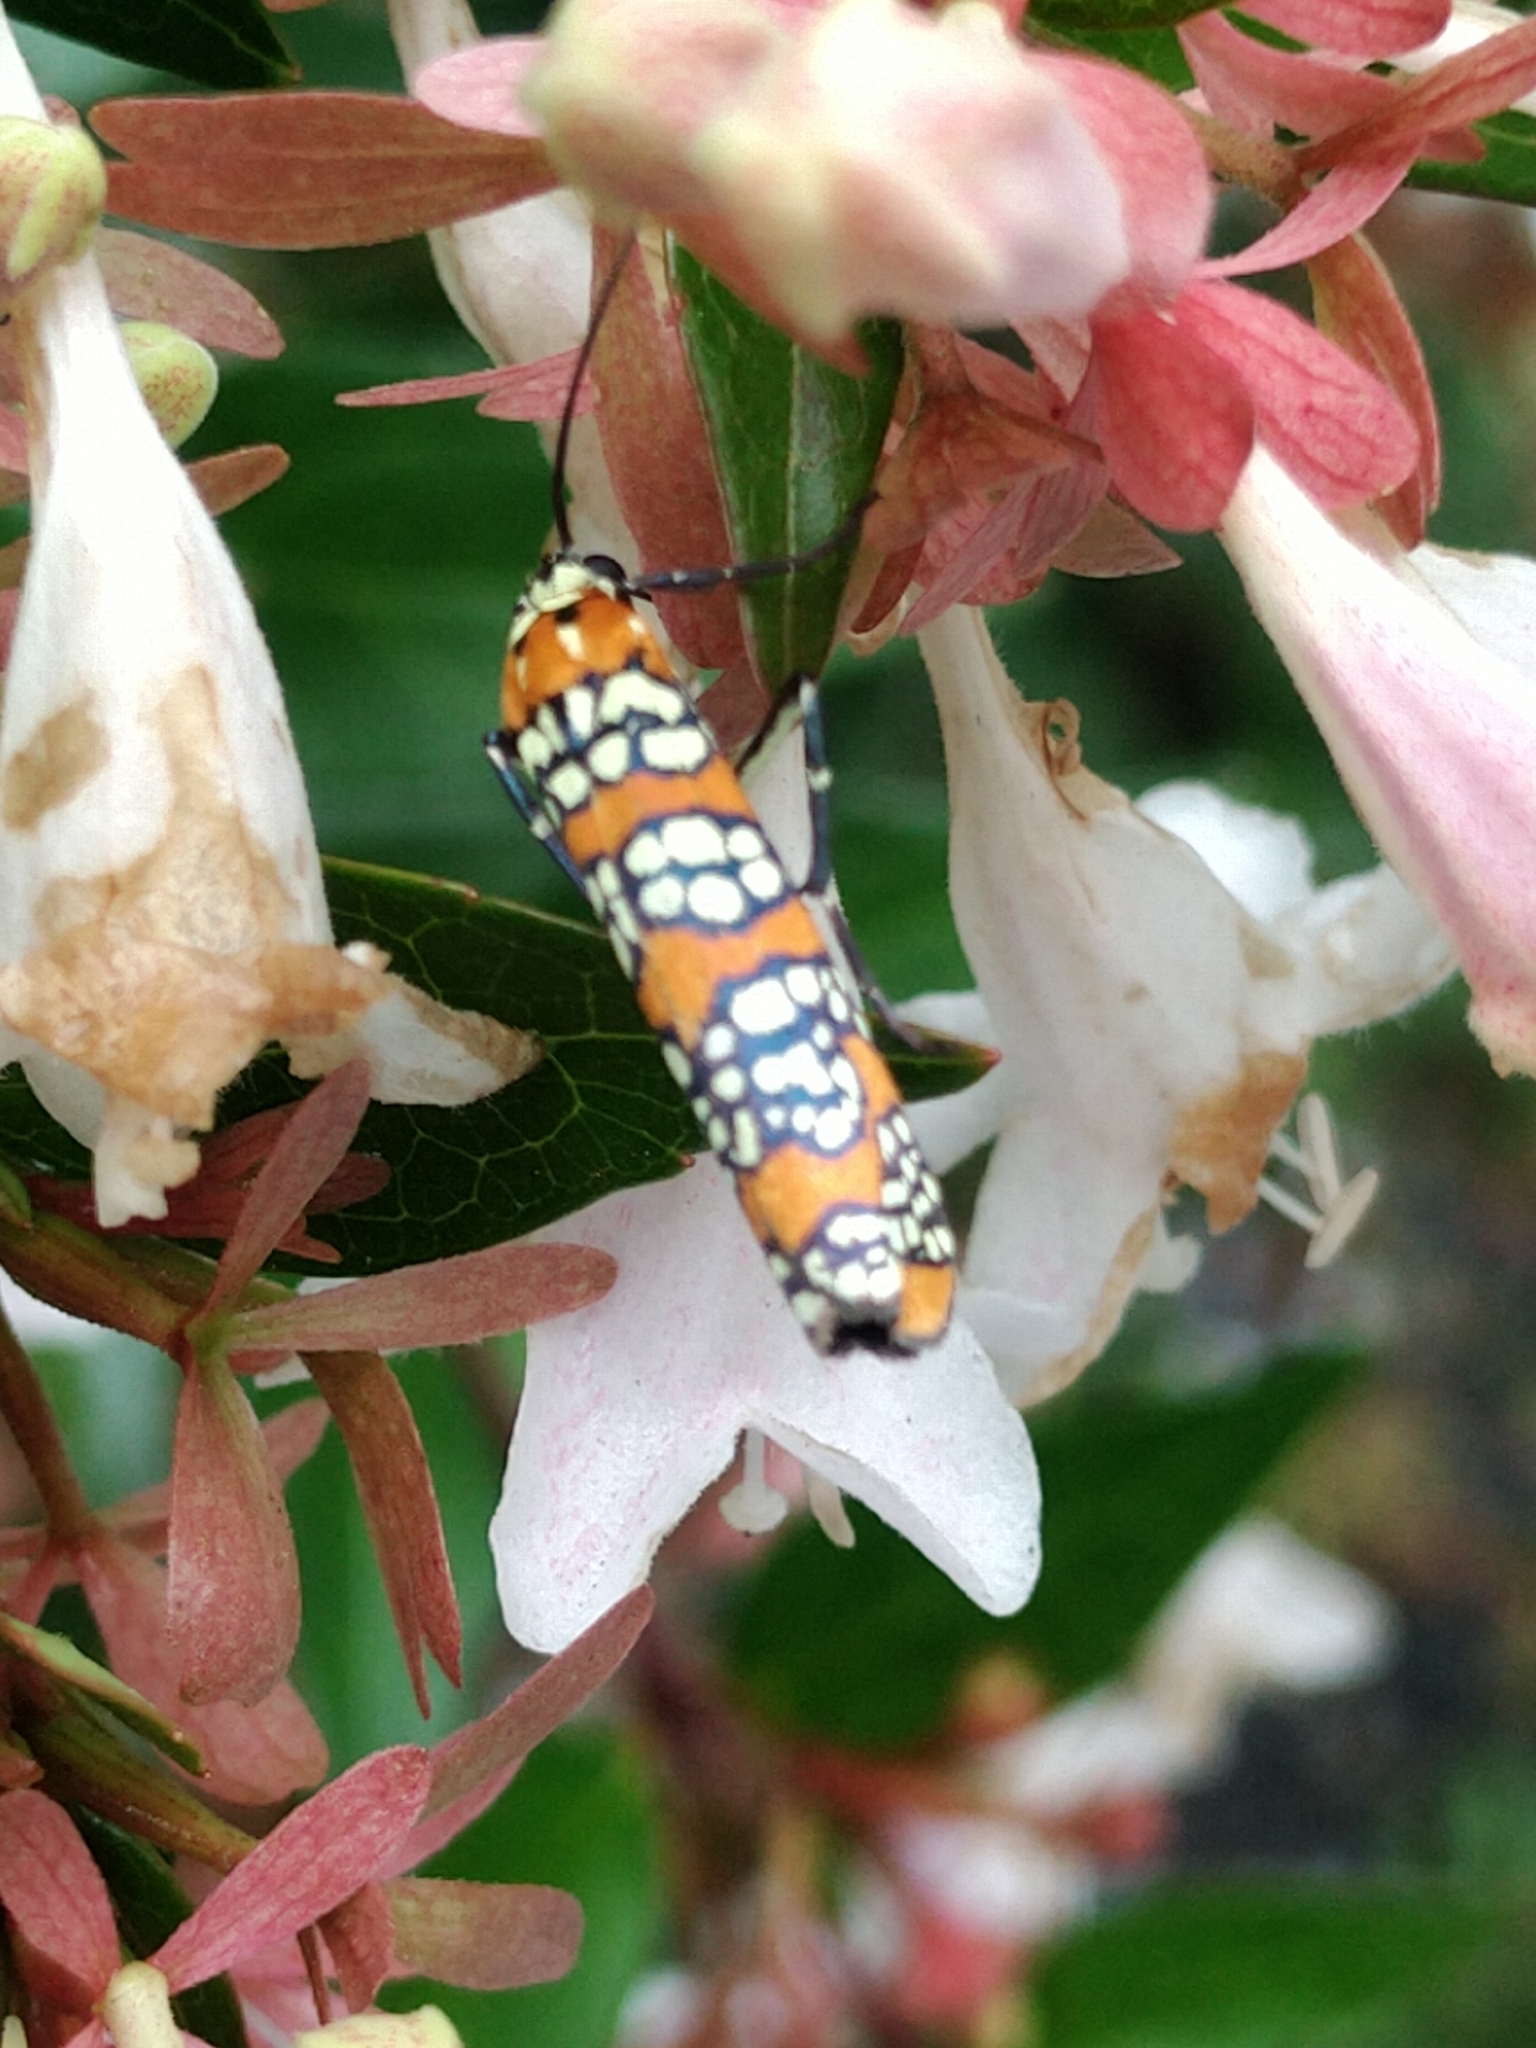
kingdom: Animalia
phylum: Arthropoda
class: Insecta
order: Lepidoptera
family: Attevidae
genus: Atteva
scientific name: Atteva punctella
